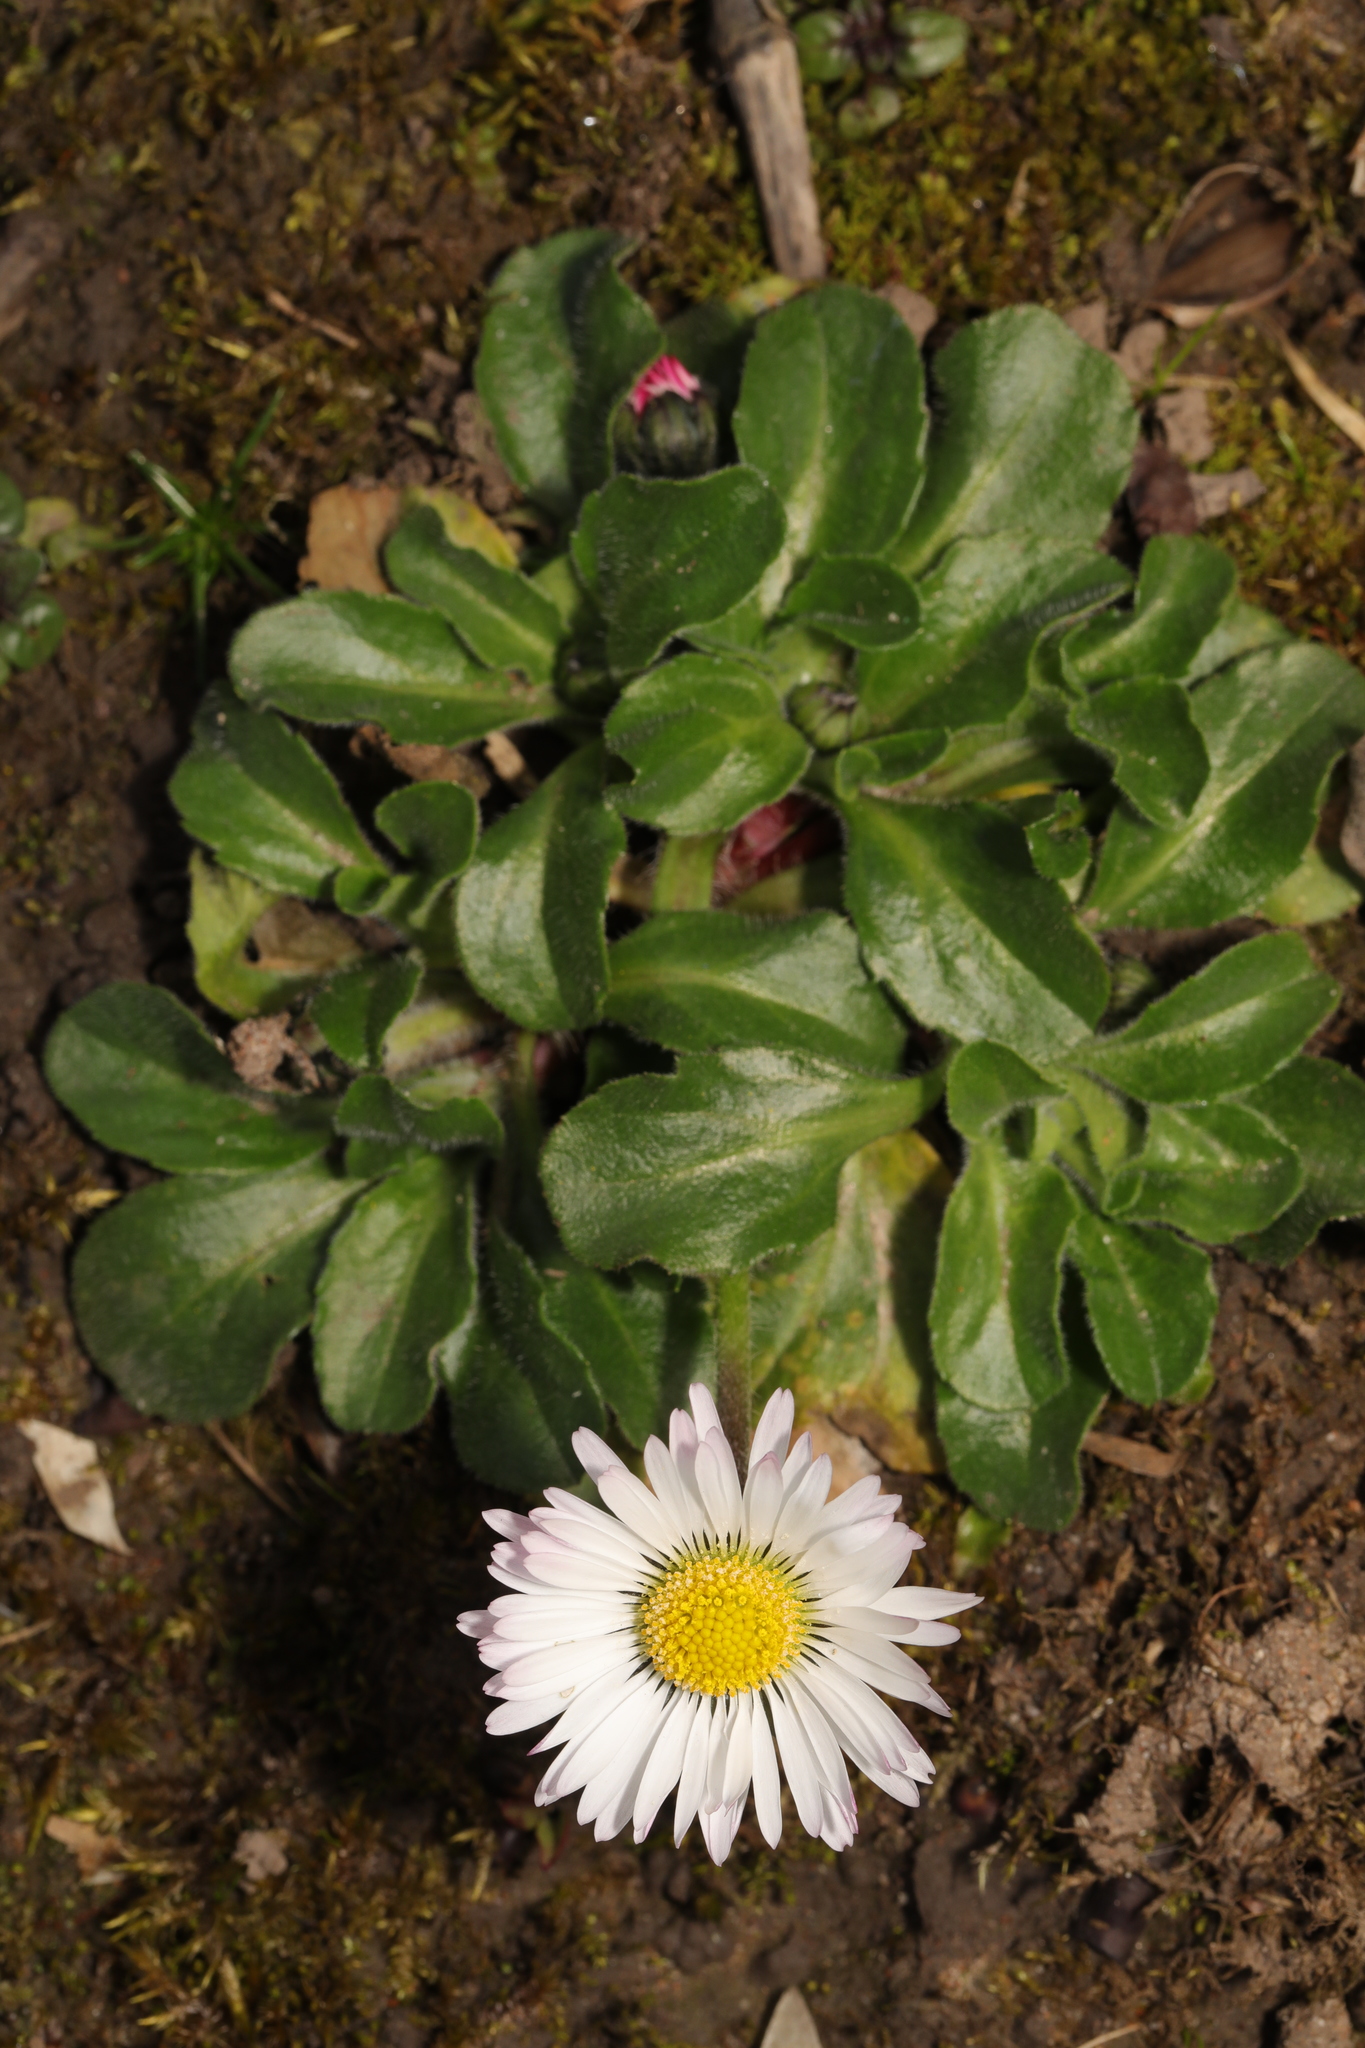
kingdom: Plantae
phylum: Tracheophyta
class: Magnoliopsida
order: Asterales
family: Asteraceae
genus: Bellis
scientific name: Bellis perennis
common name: Lawndaisy
